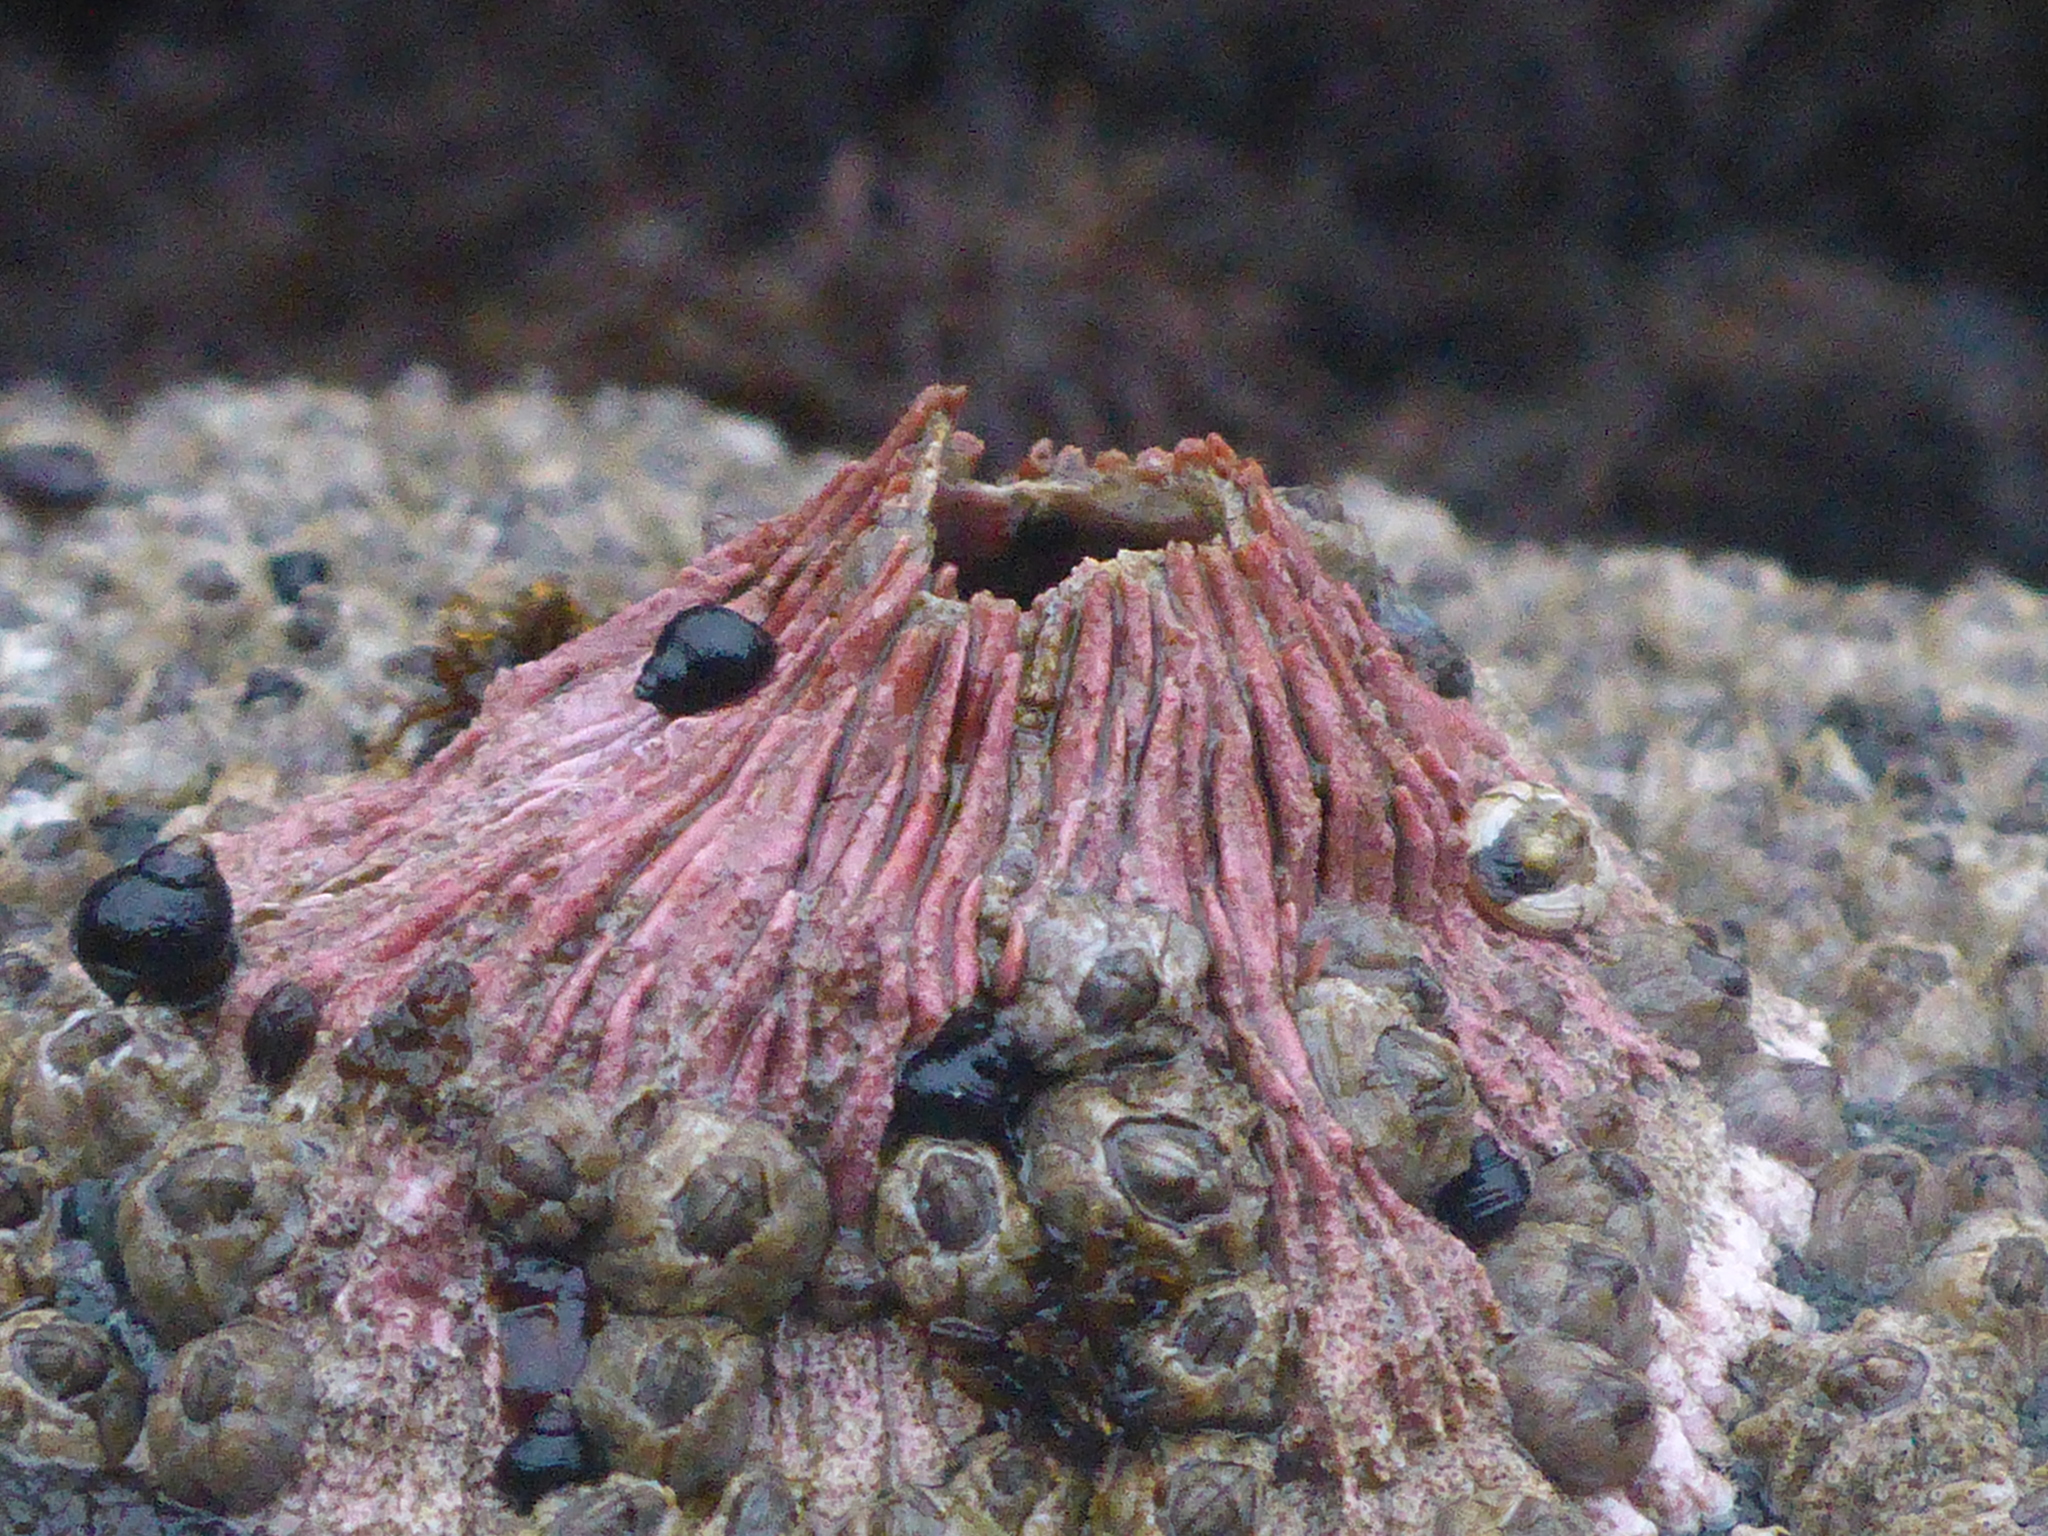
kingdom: Animalia
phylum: Arthropoda
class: Maxillopoda
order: Sessilia
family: Tetraclitidae
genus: Tetraclita
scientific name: Tetraclita rubescens
